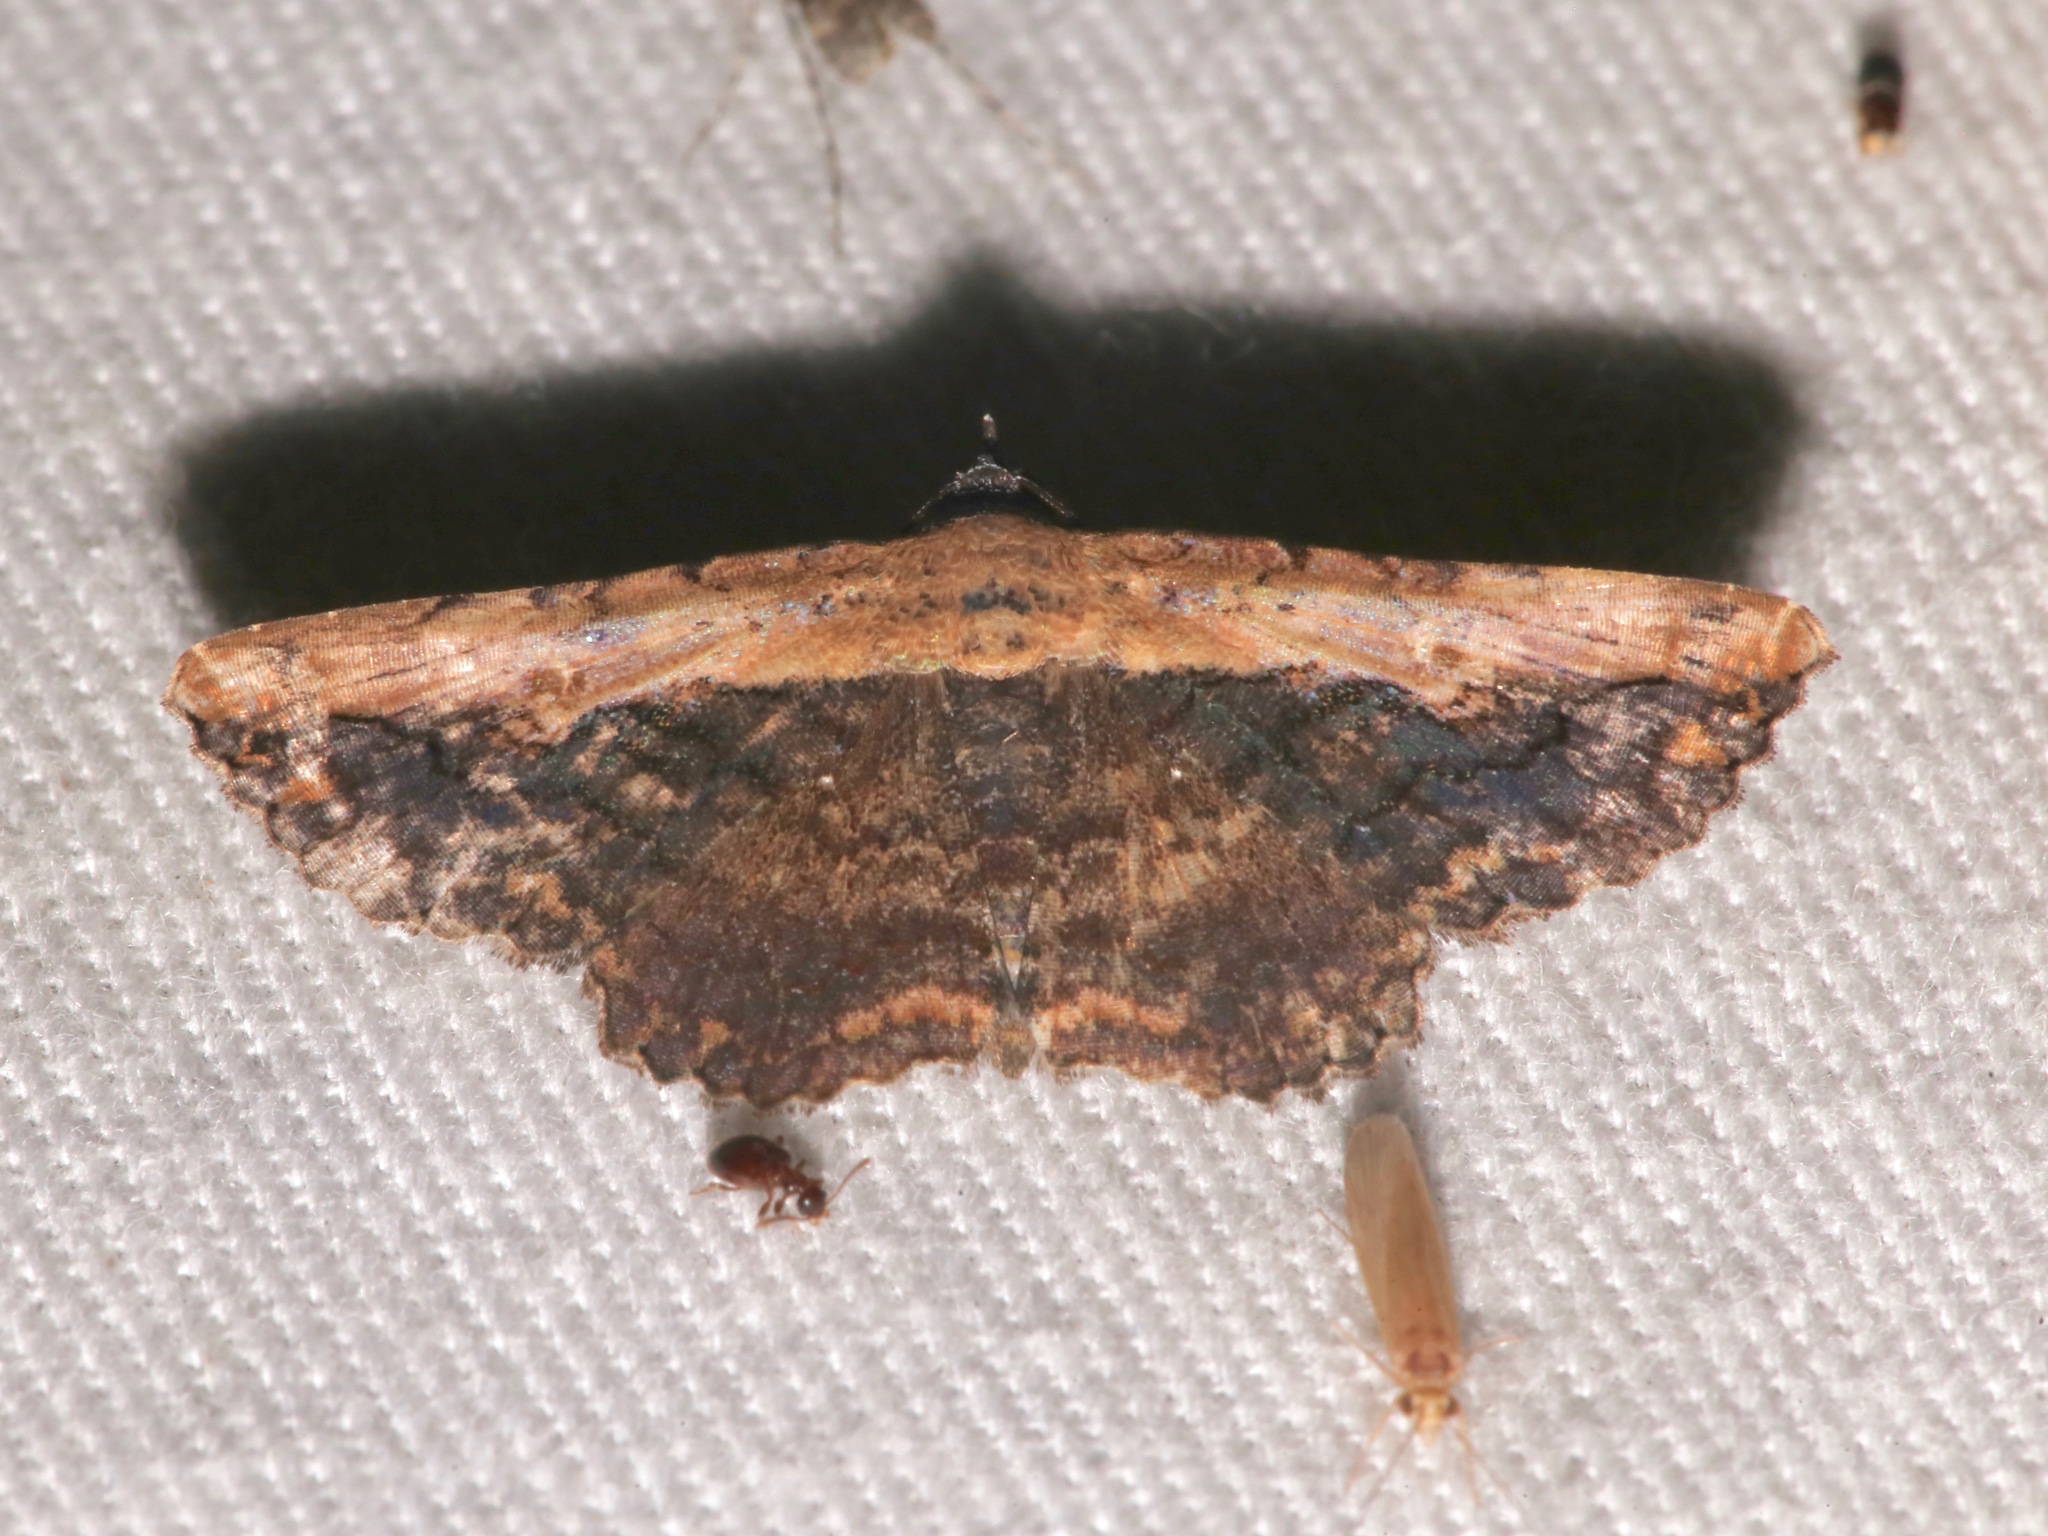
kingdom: Animalia
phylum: Arthropoda
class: Insecta
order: Lepidoptera
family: Erebidae
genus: Selenisa
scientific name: Selenisa sueroides
